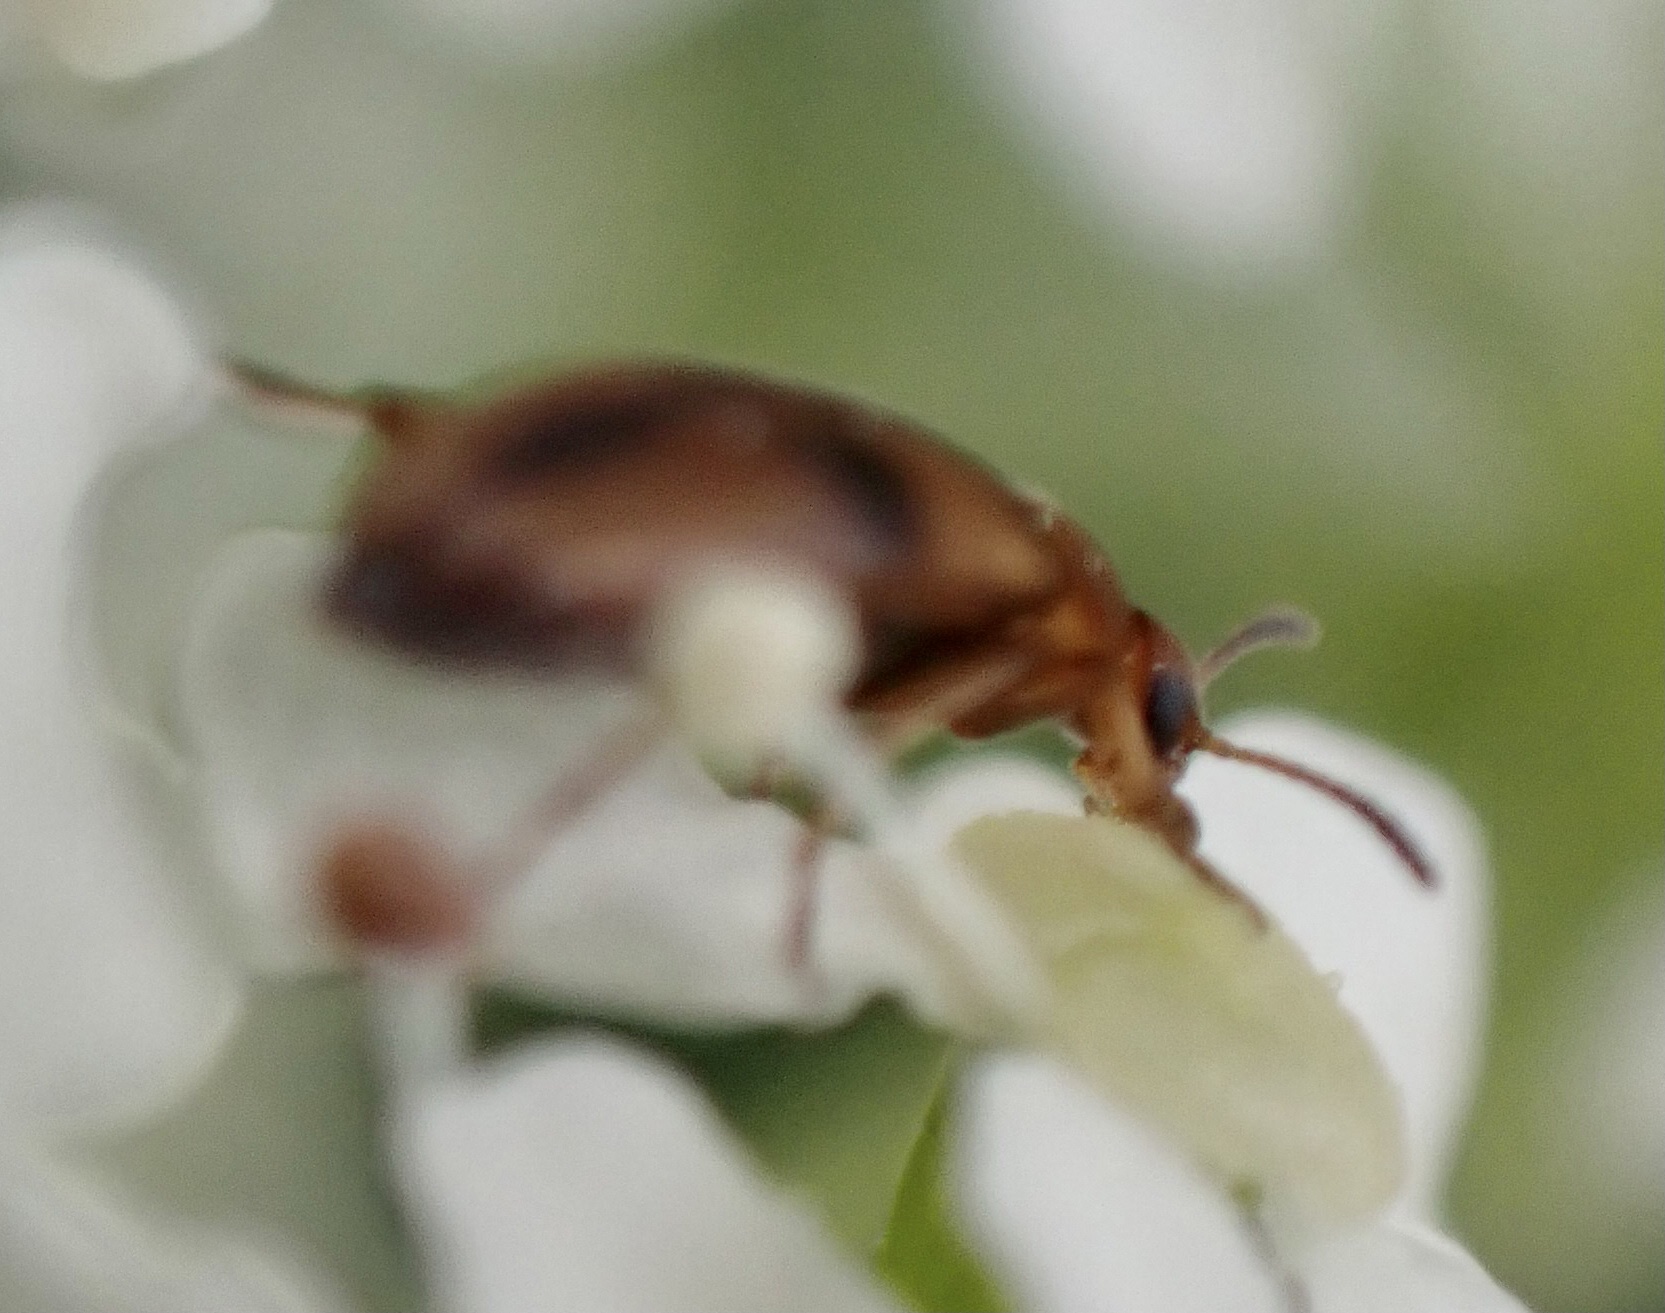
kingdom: Animalia
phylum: Arthropoda
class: Insecta
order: Coleoptera
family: Scraptiidae
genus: Anaspis
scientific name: Anaspis maculata
